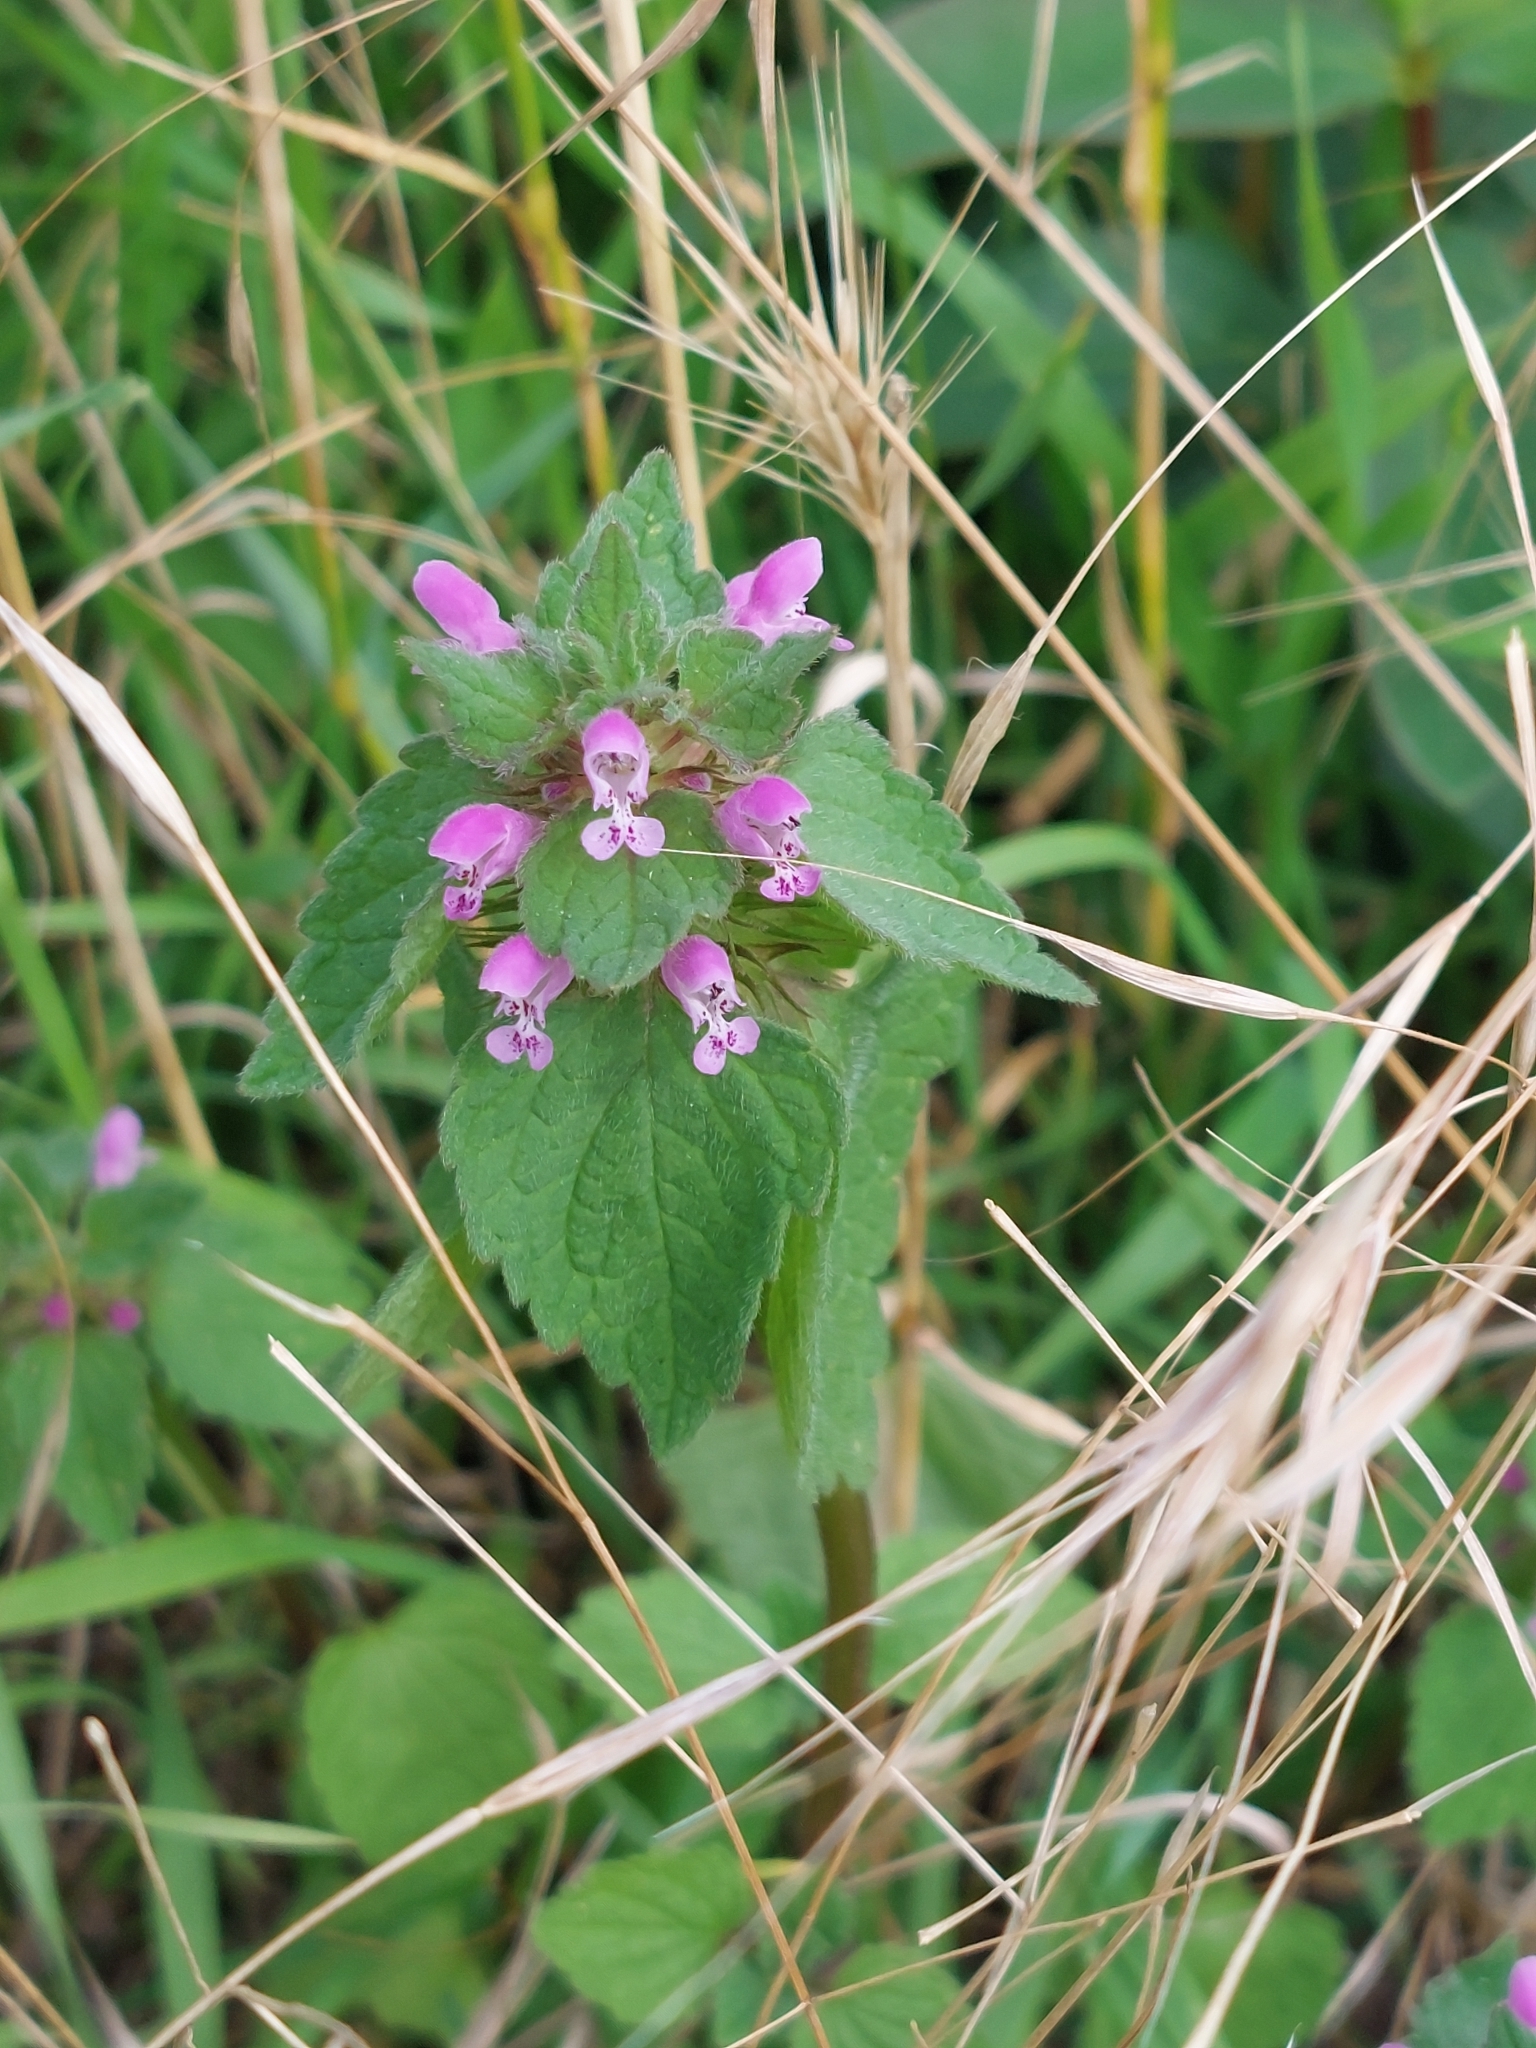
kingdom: Plantae
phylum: Tracheophyta
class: Magnoliopsida
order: Lamiales
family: Lamiaceae
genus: Lamium
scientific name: Lamium purpureum
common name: Red dead-nettle
